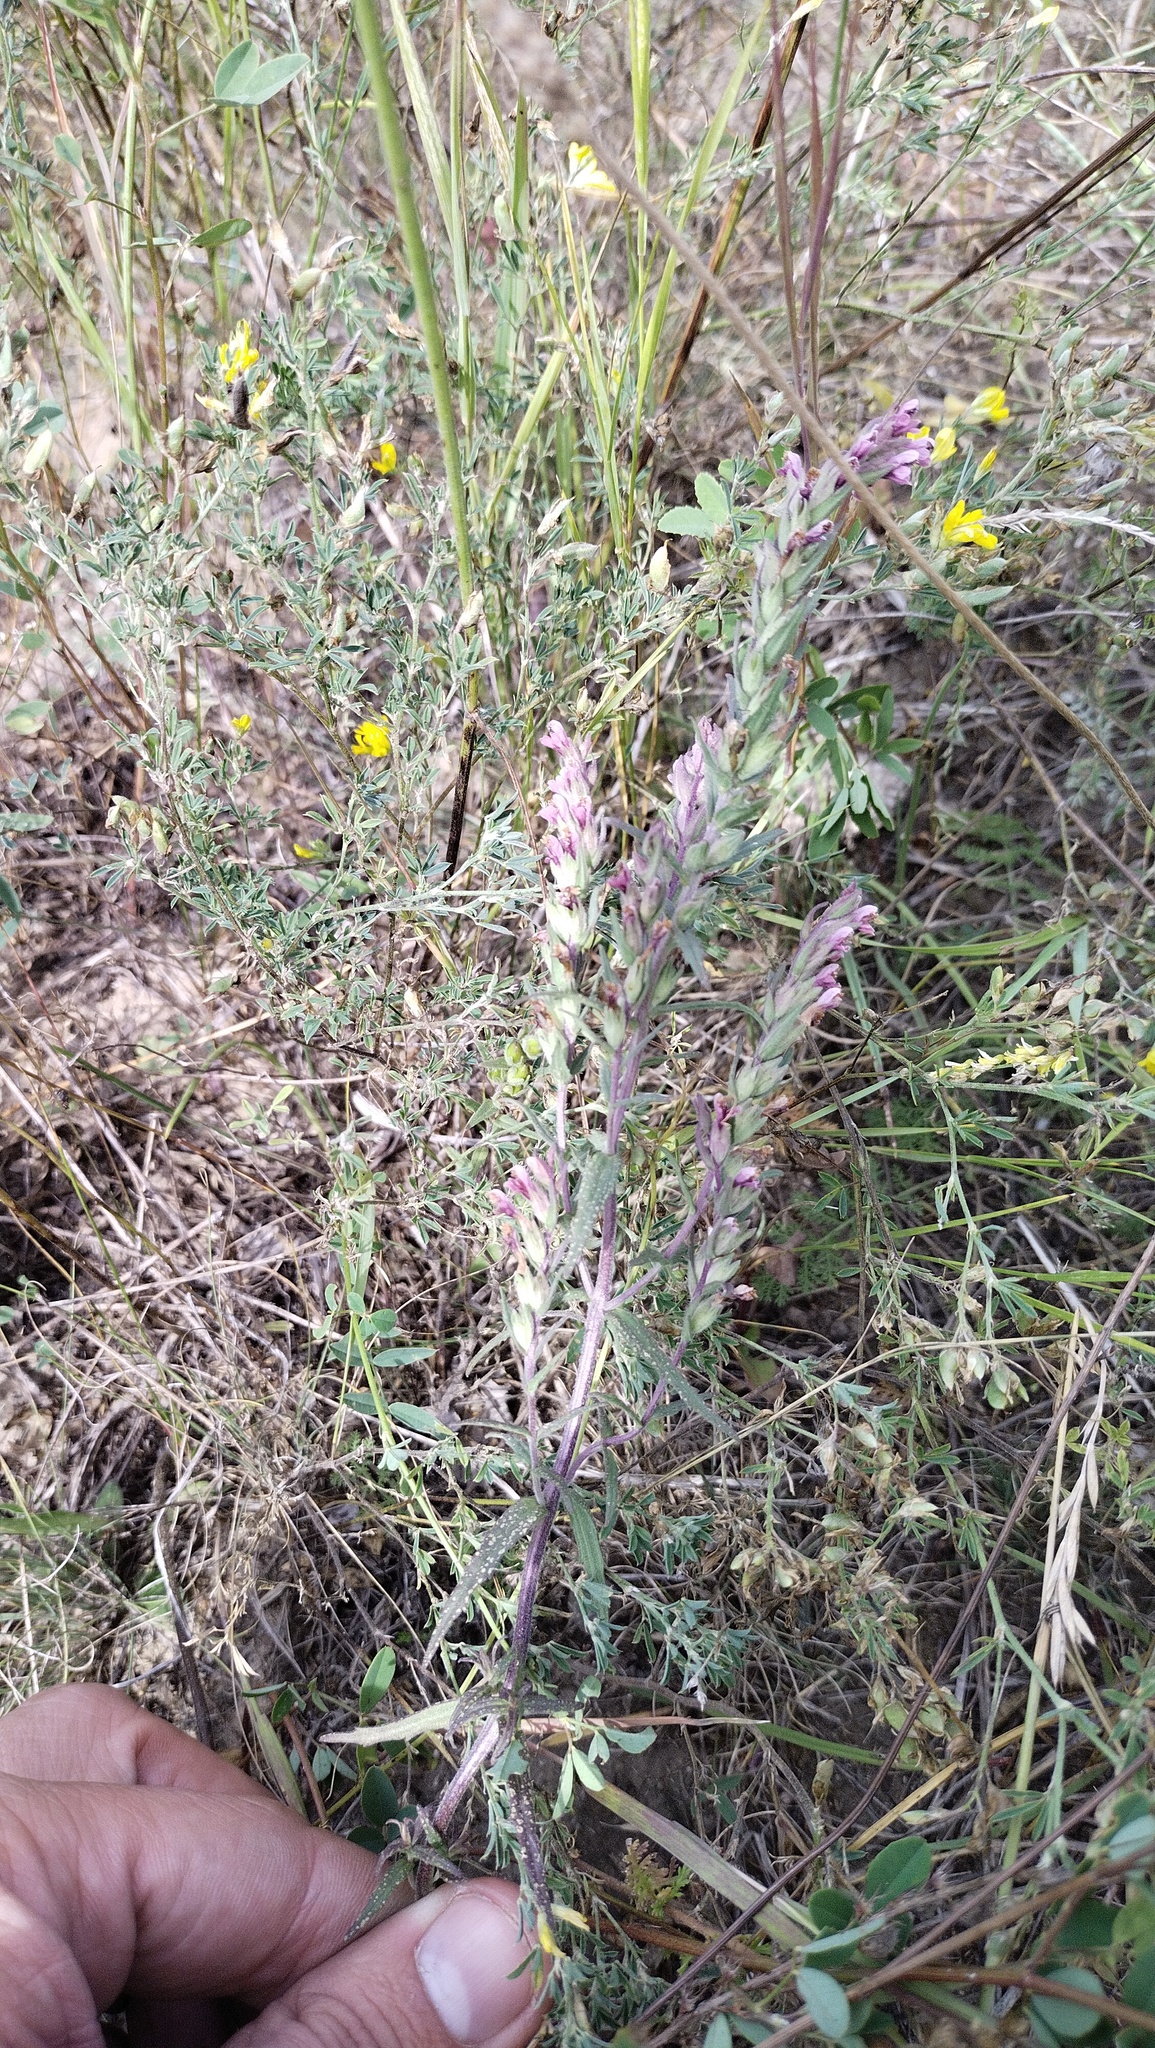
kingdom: Plantae
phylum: Tracheophyta
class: Magnoliopsida
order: Lamiales
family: Orobanchaceae
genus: Odontites
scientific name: Odontites vulgaris
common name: Broomrape
